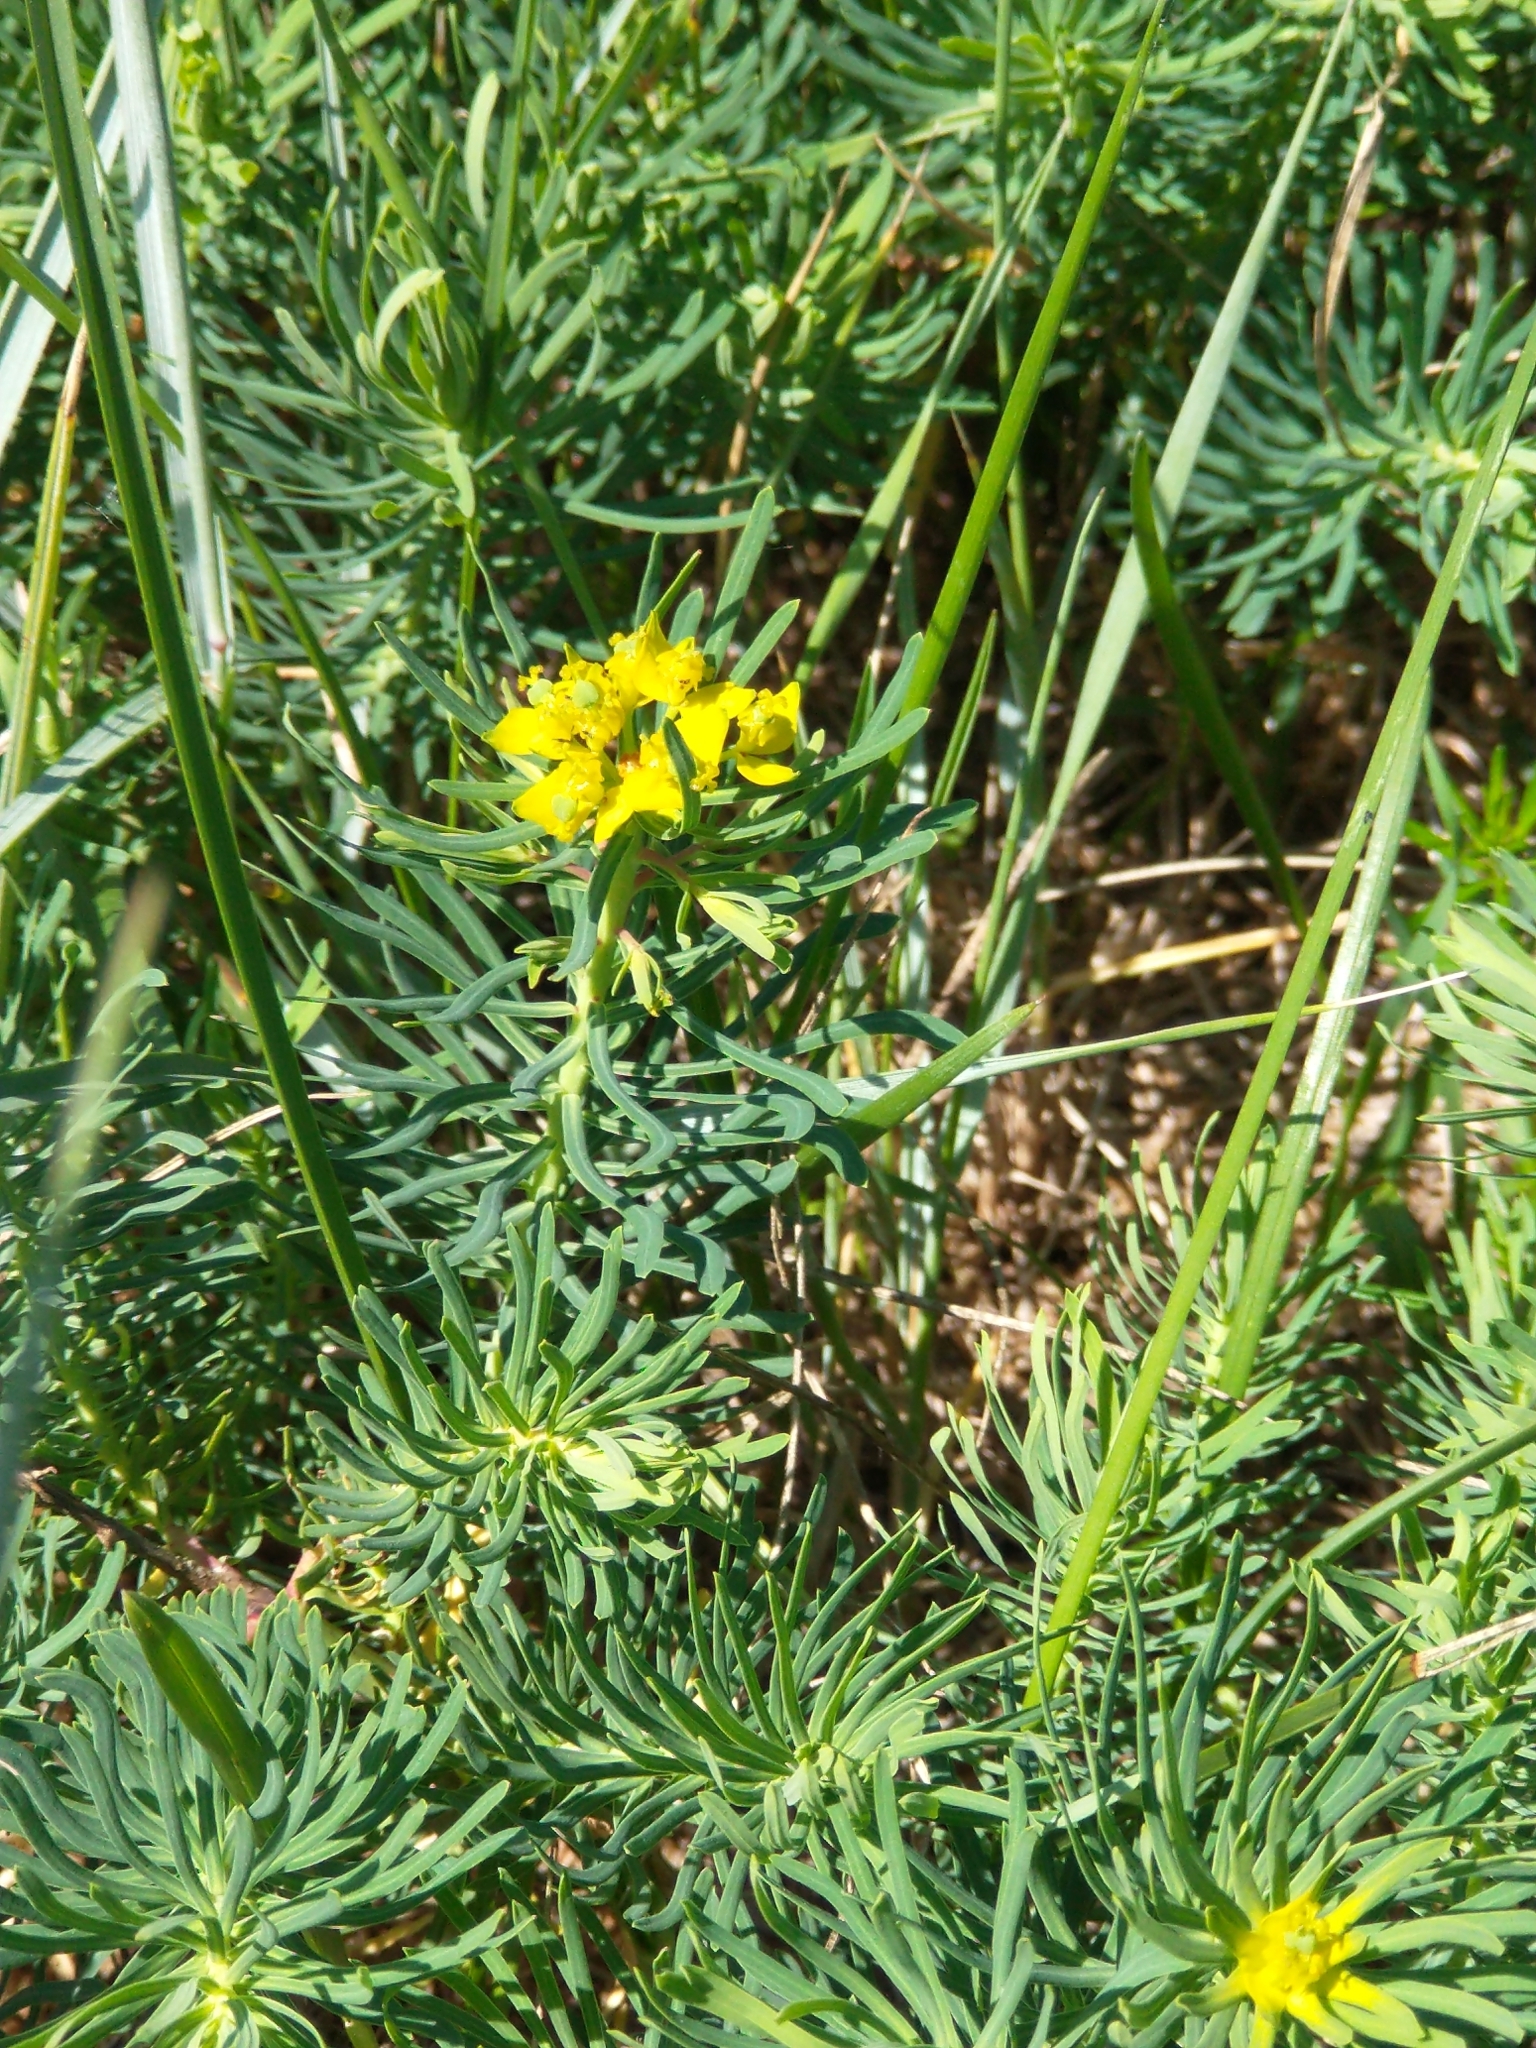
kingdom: Plantae
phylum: Tracheophyta
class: Magnoliopsida
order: Malpighiales
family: Euphorbiaceae
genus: Euphorbia
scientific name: Euphorbia cyparissias
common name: Cypress spurge
